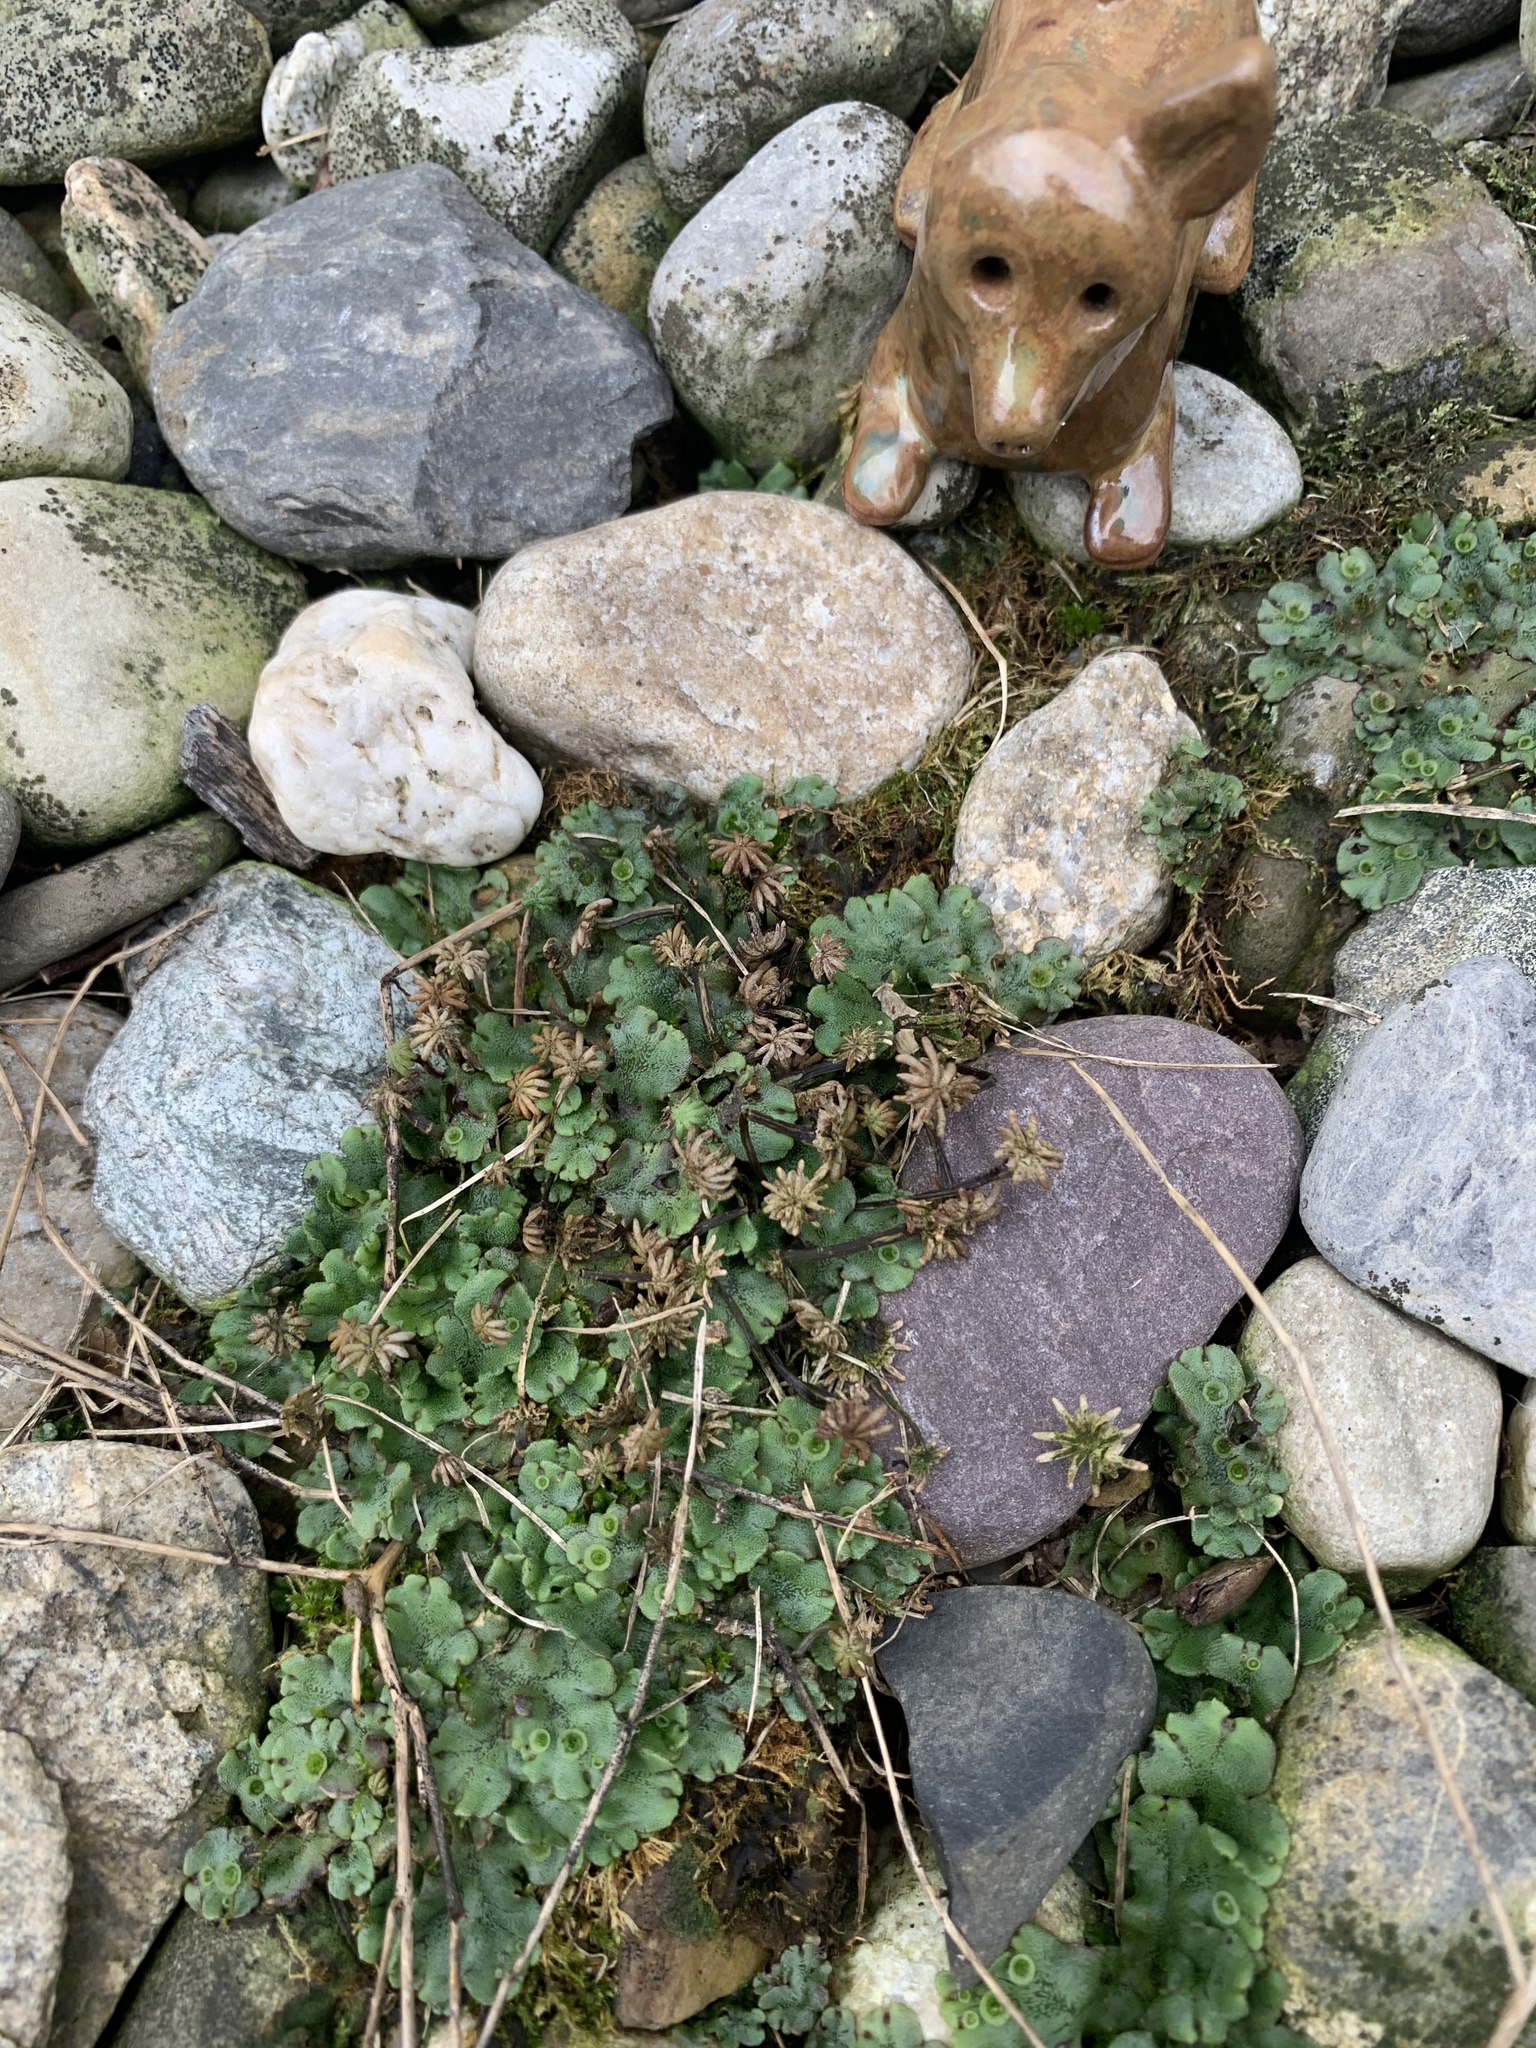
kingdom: Plantae
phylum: Marchantiophyta
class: Marchantiopsida
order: Marchantiales
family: Marchantiaceae
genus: Marchantia
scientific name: Marchantia polymorpha
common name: Common liverwort
